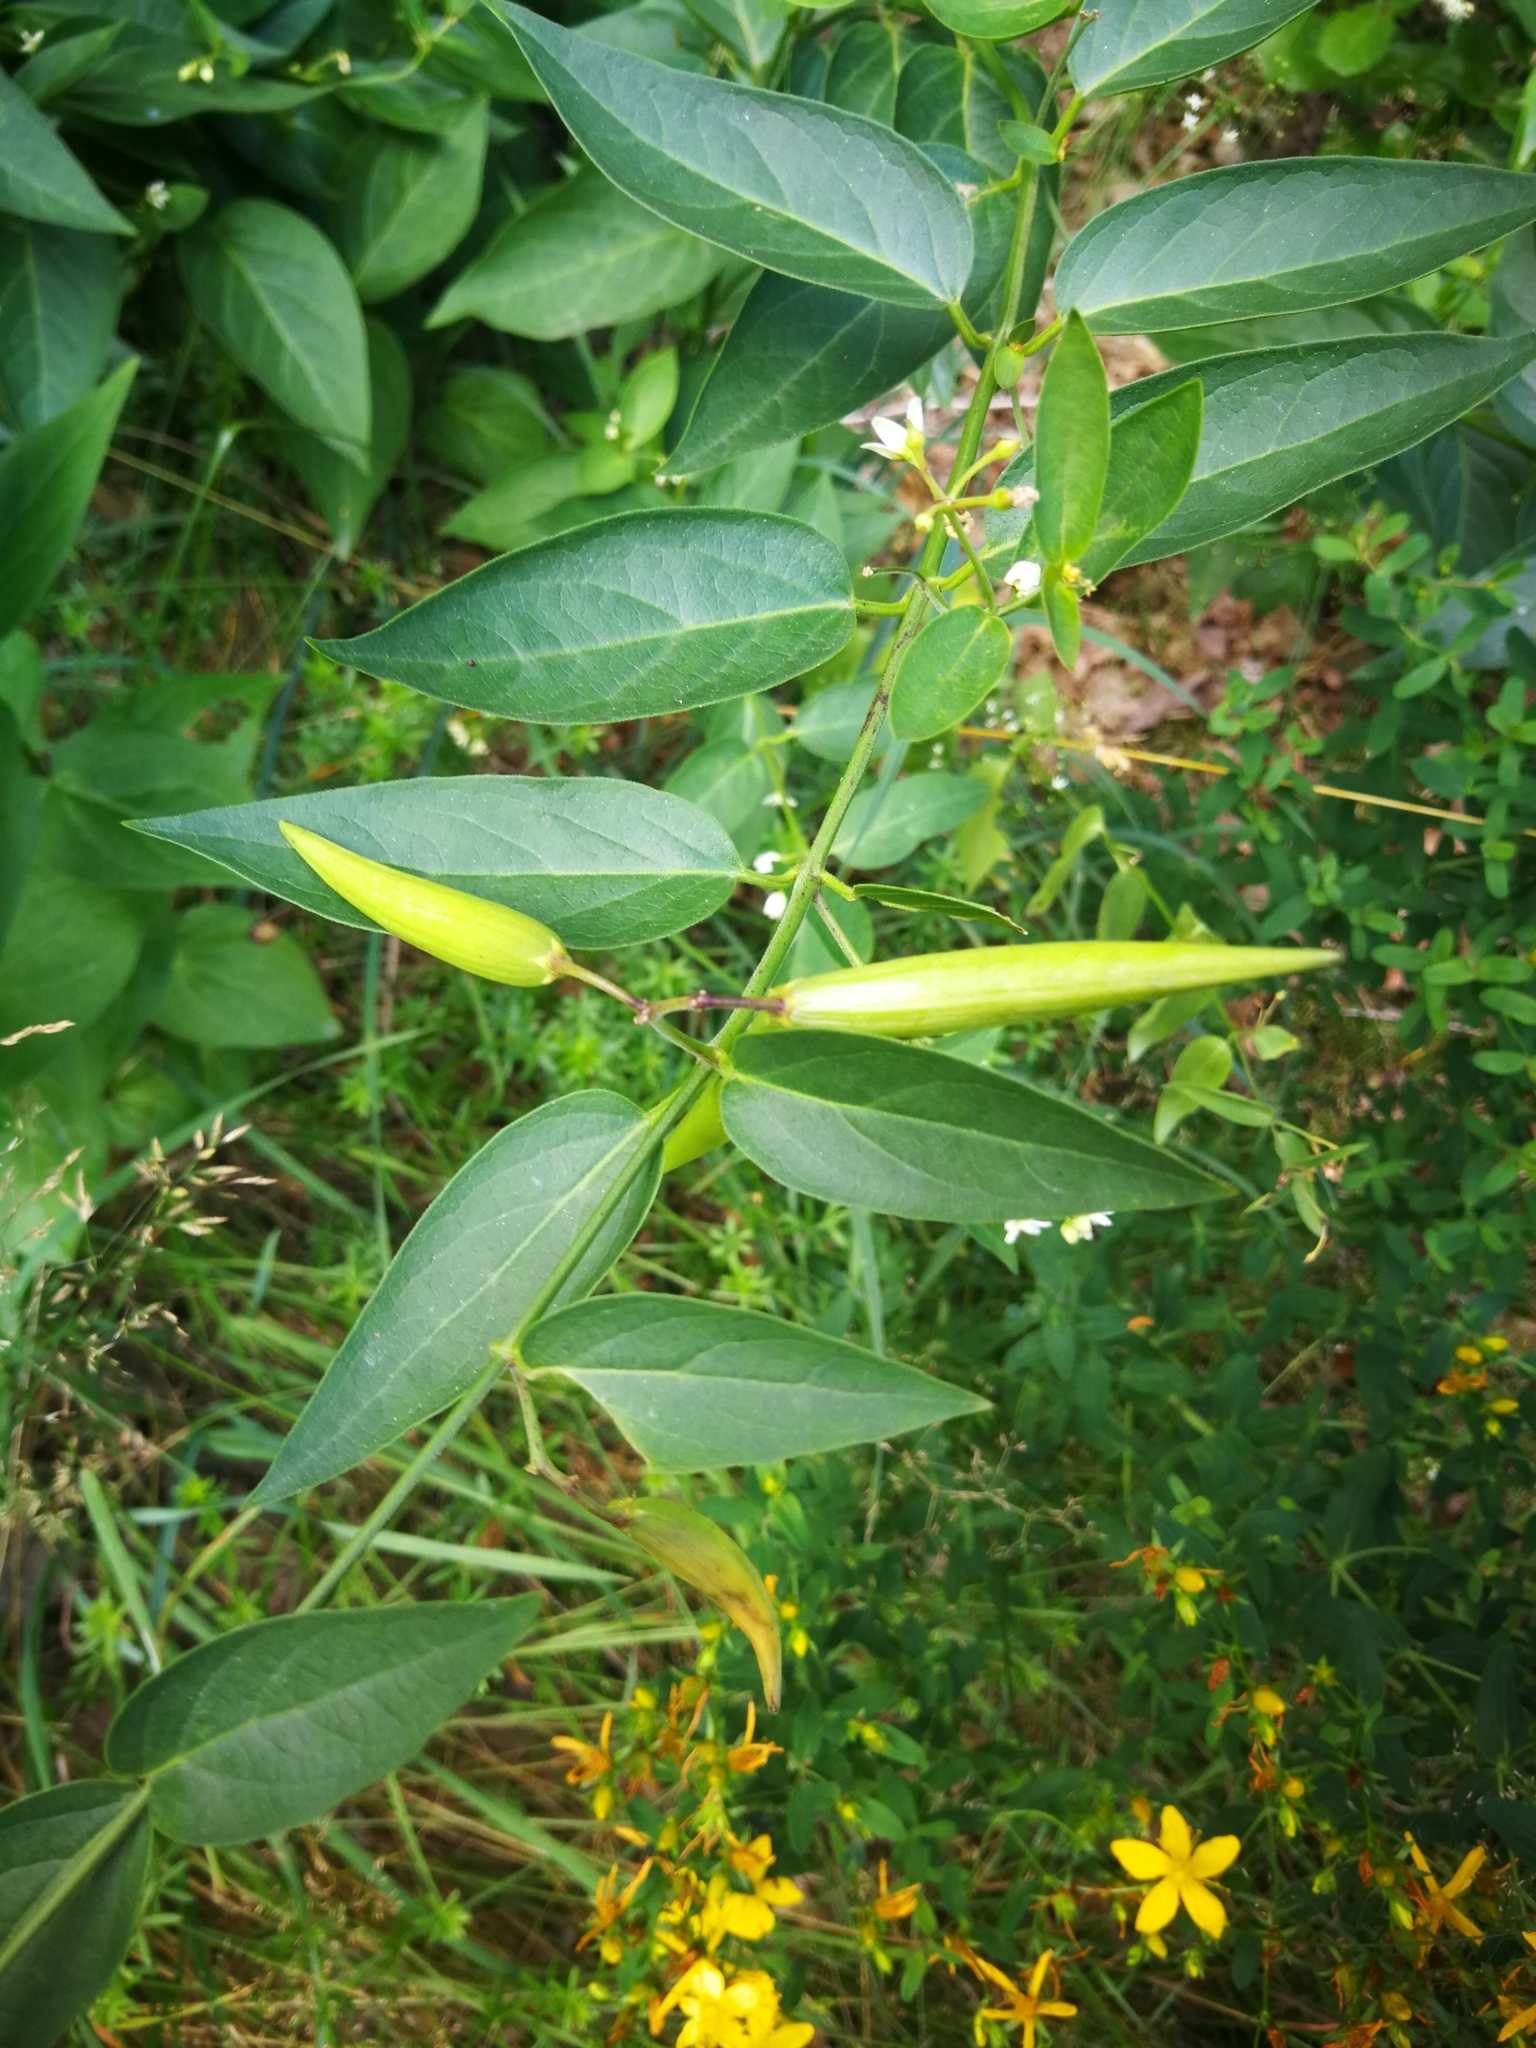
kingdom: Plantae
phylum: Tracheophyta
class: Magnoliopsida
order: Gentianales
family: Apocynaceae
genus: Vincetoxicum
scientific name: Vincetoxicum hirundinaria
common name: White swallowwort
